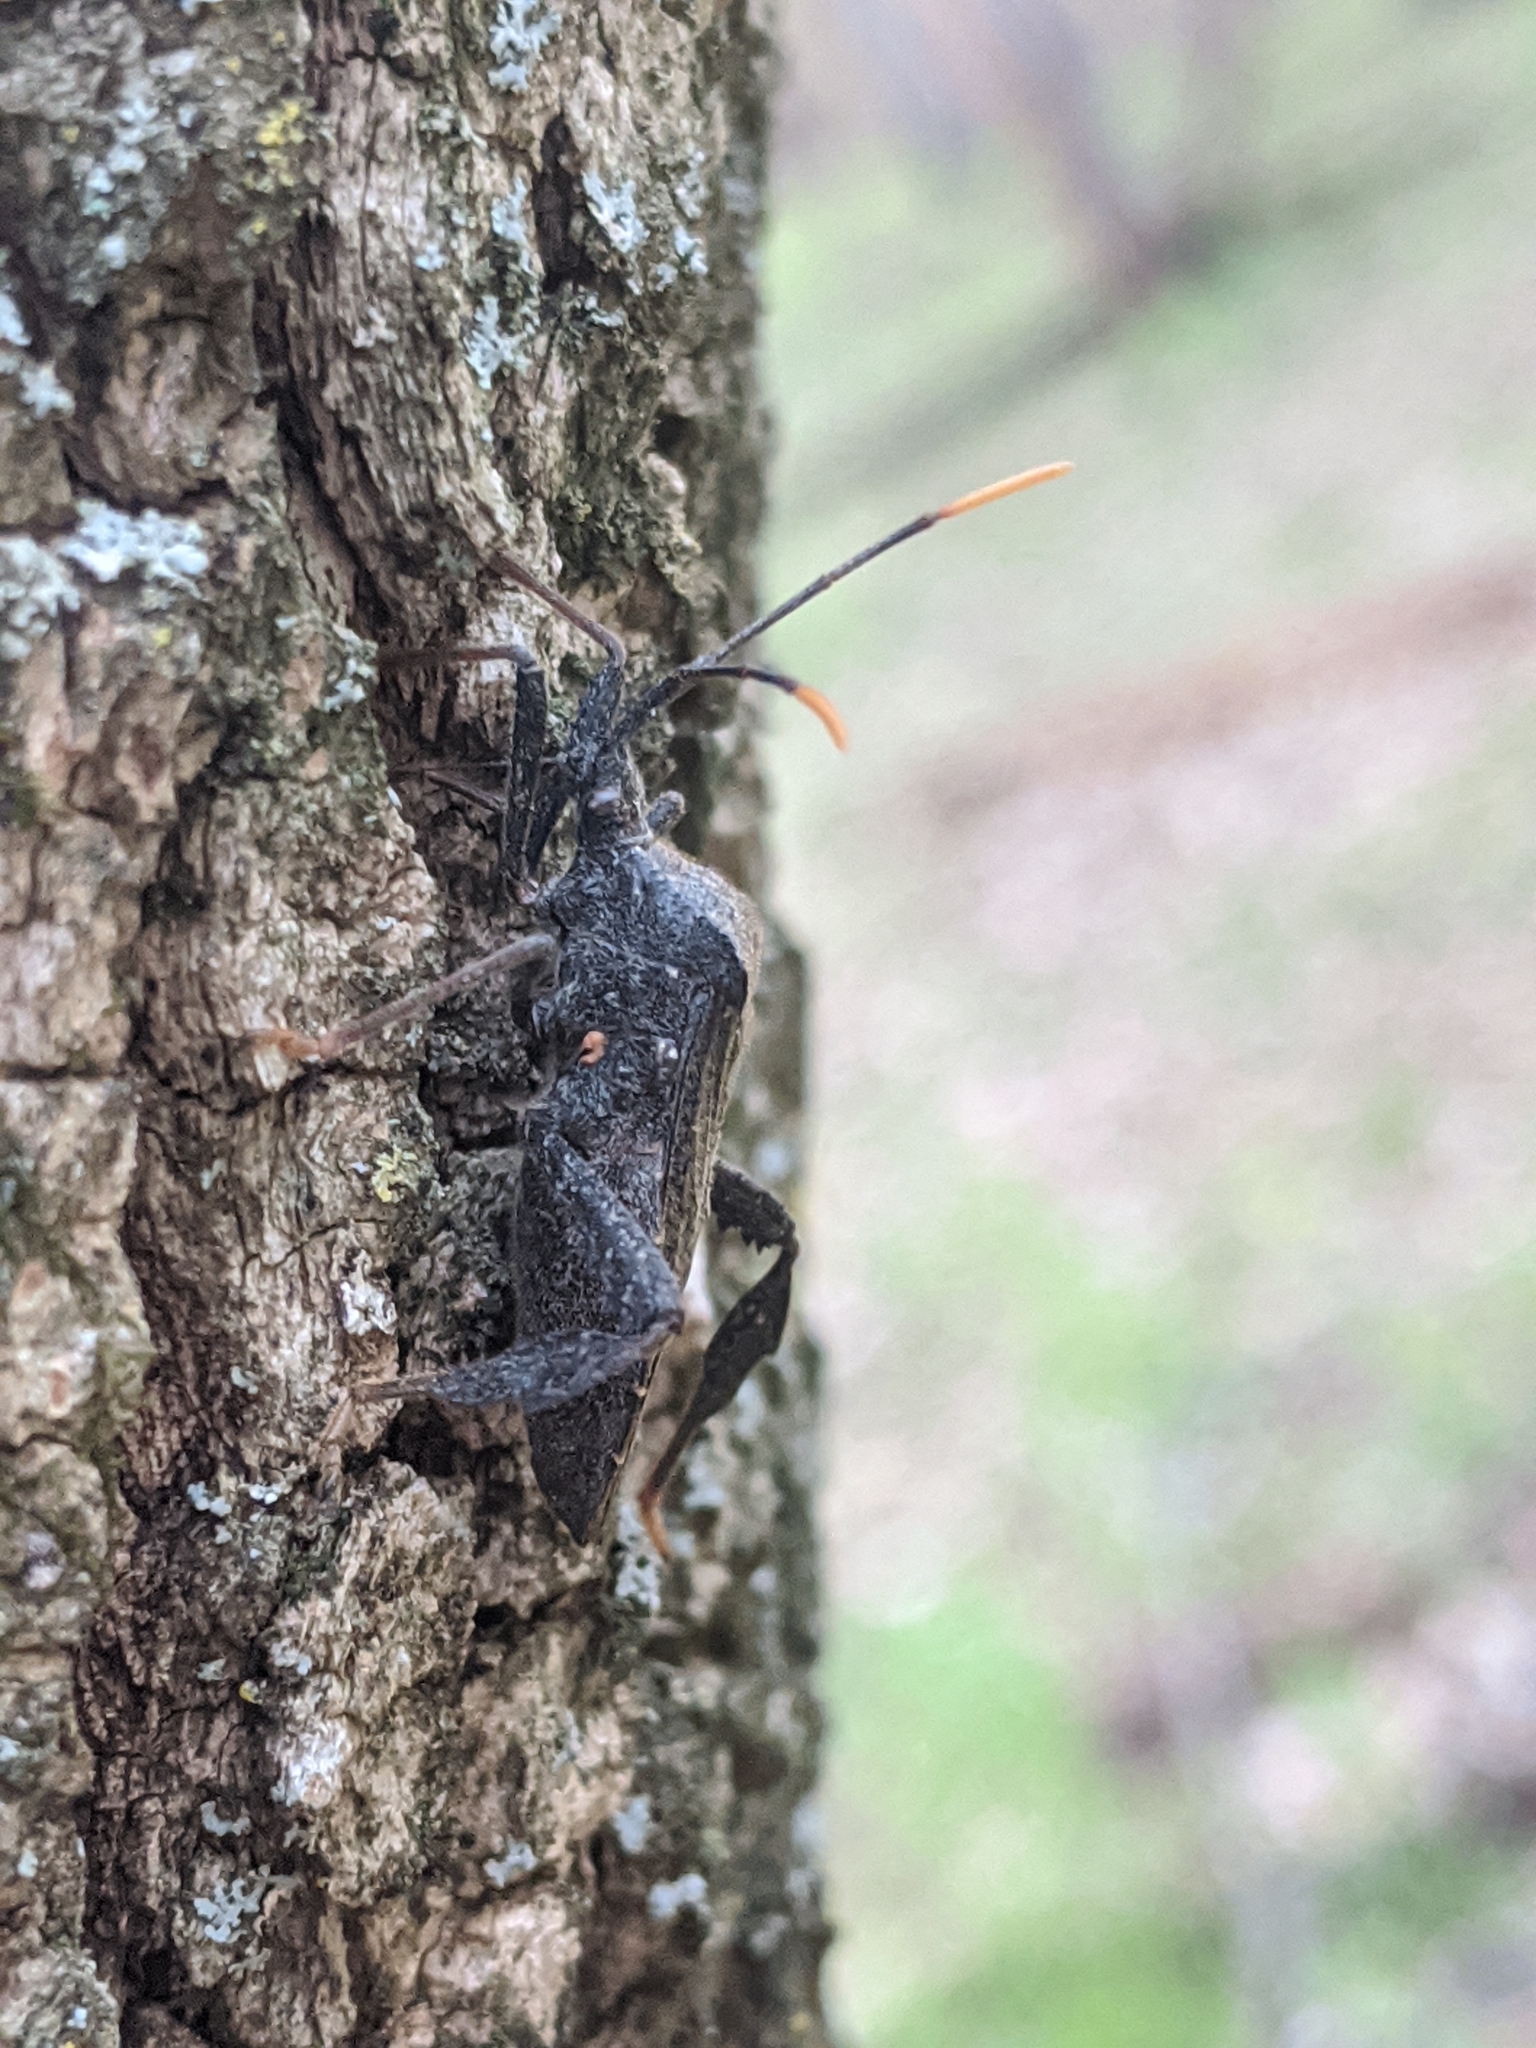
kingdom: Animalia
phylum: Arthropoda
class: Insecta
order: Hemiptera
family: Coreidae
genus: Acanthocephala
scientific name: Acanthocephala terminalis
